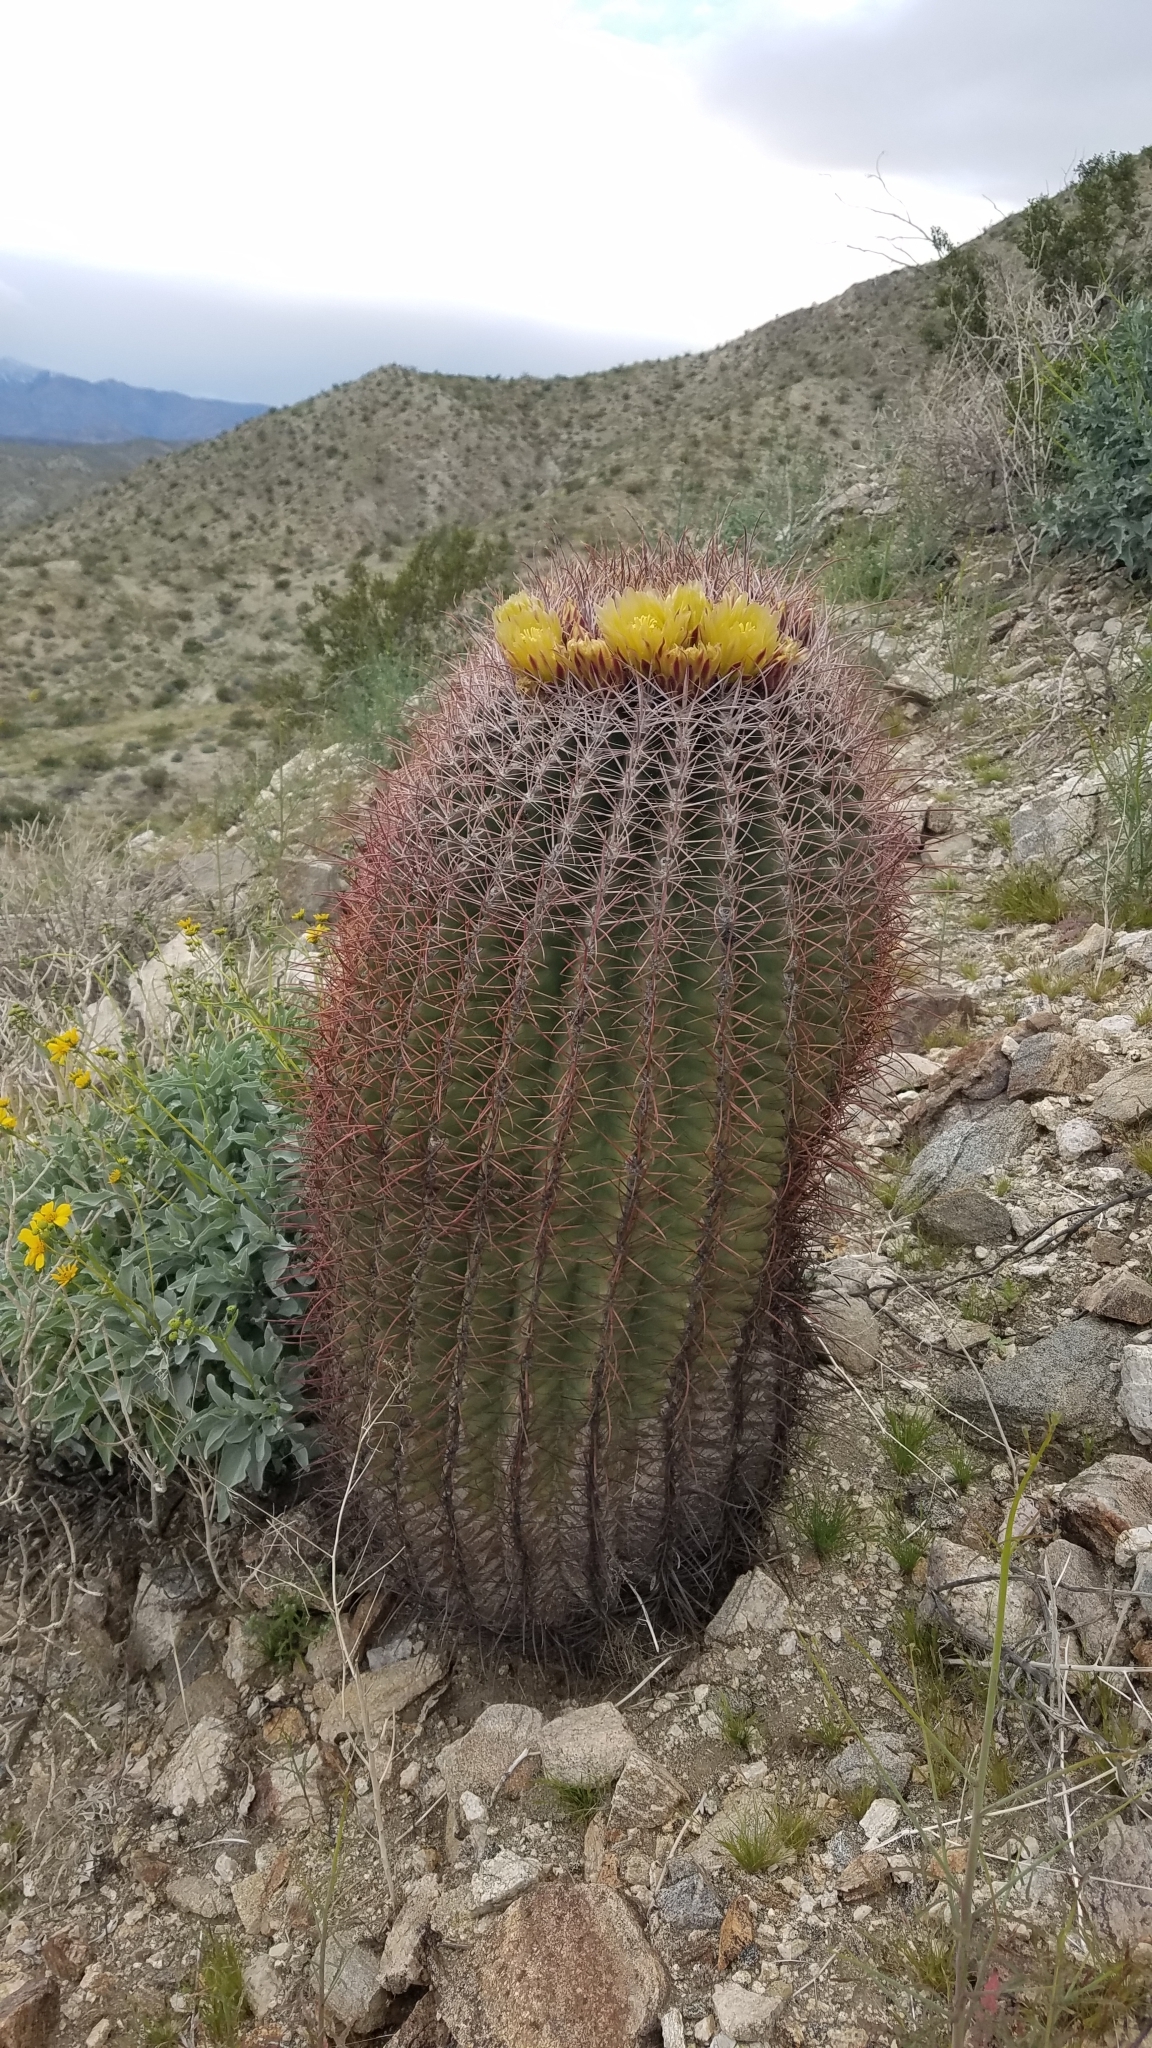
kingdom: Plantae
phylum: Tracheophyta
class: Magnoliopsida
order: Caryophyllales
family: Cactaceae
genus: Ferocactus
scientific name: Ferocactus cylindraceus
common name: California barrel cactus
